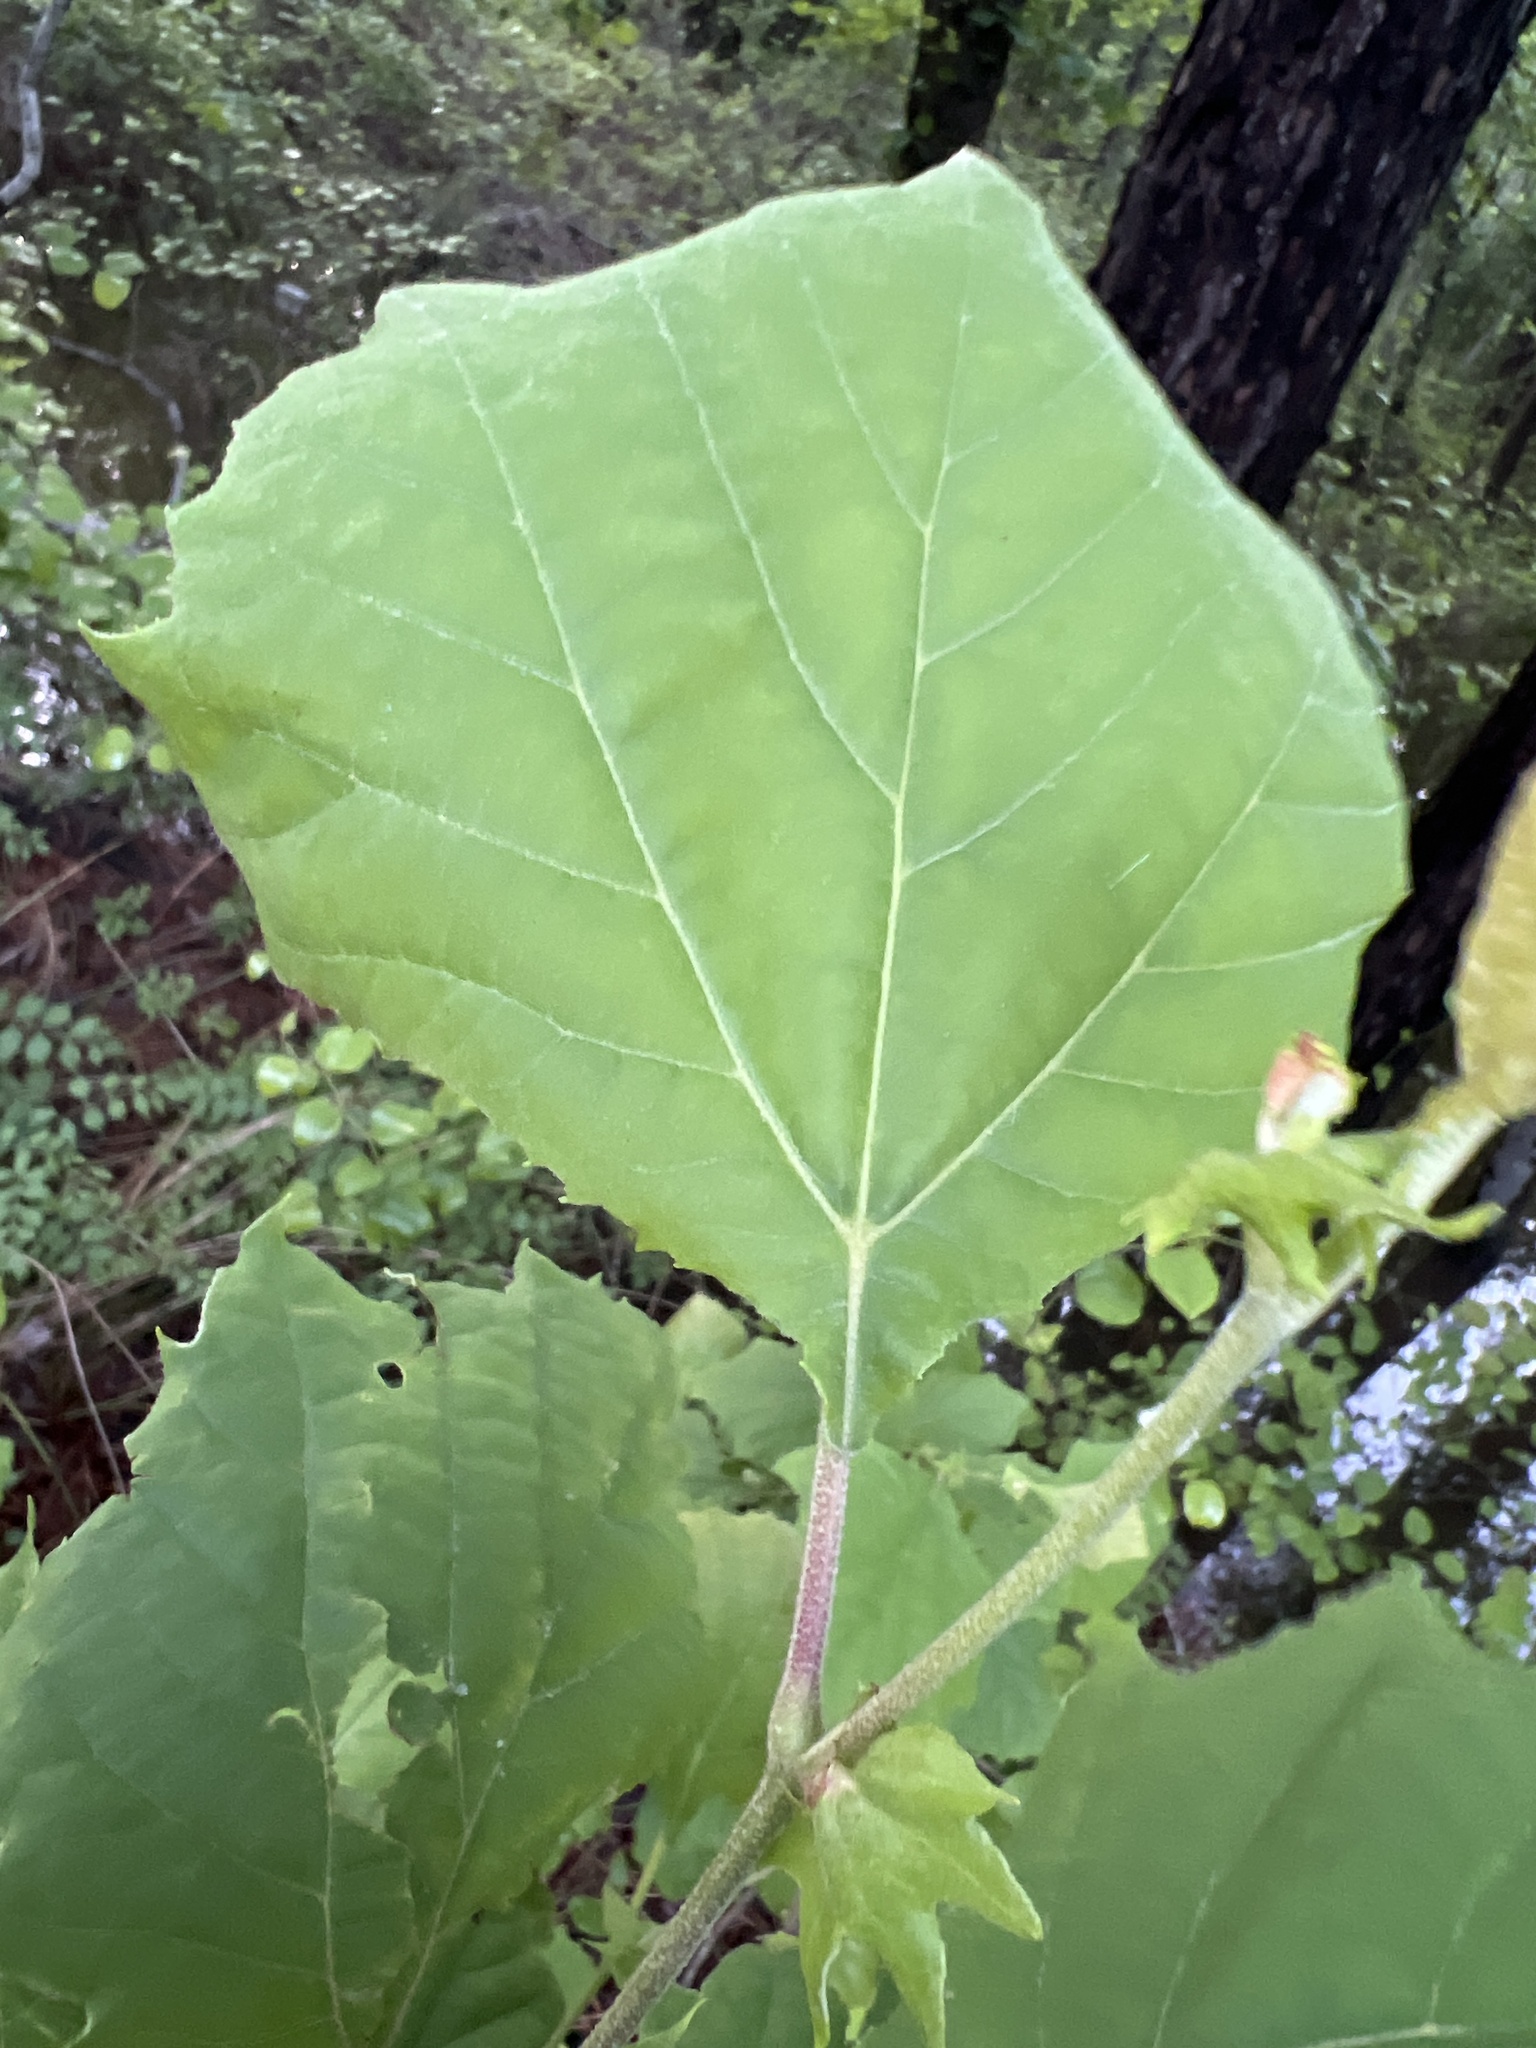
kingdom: Plantae
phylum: Tracheophyta
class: Magnoliopsida
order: Proteales
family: Platanaceae
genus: Platanus
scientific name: Platanus occidentalis
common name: American sycamore
